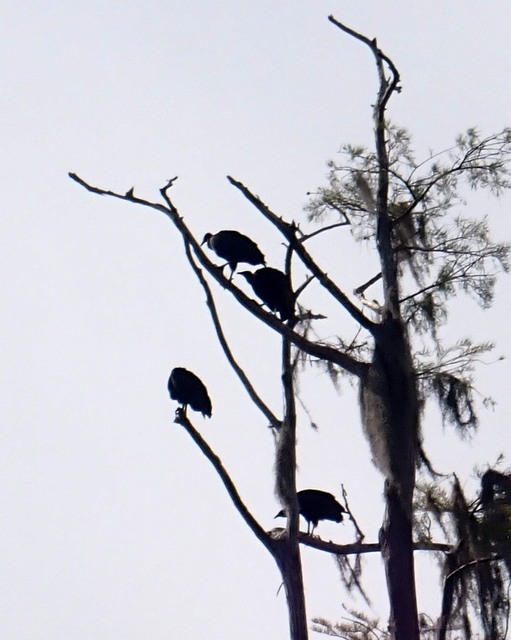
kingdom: Animalia
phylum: Chordata
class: Aves
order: Accipitriformes
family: Cathartidae
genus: Cathartes
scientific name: Cathartes aura
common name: Turkey vulture
